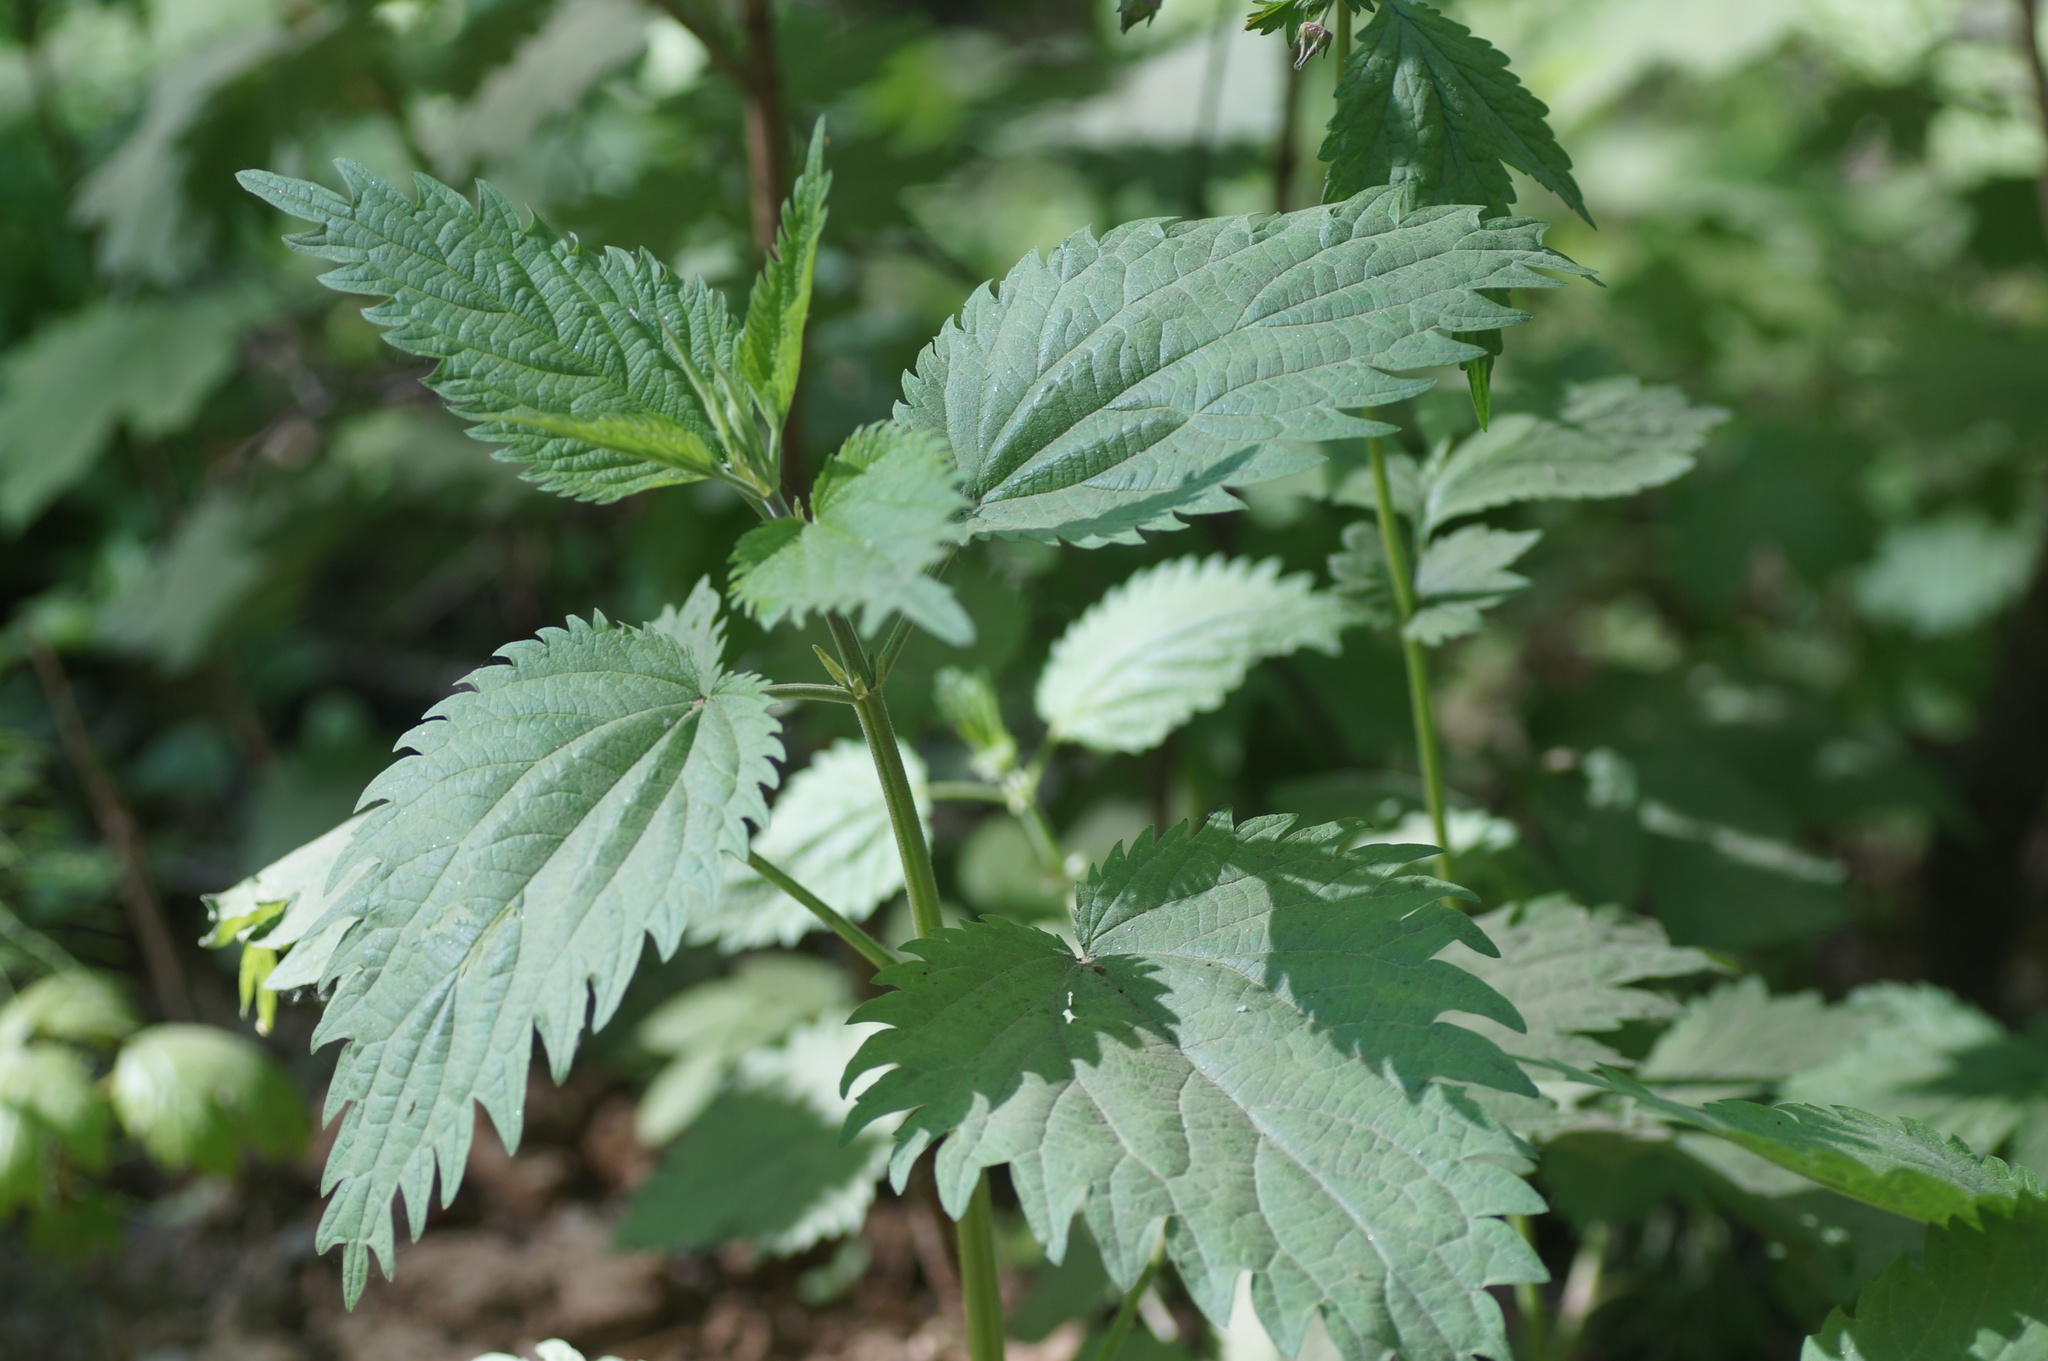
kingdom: Plantae
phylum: Tracheophyta
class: Magnoliopsida
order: Rosales
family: Urticaceae
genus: Urtica
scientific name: Urtica dioica
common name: Common nettle
